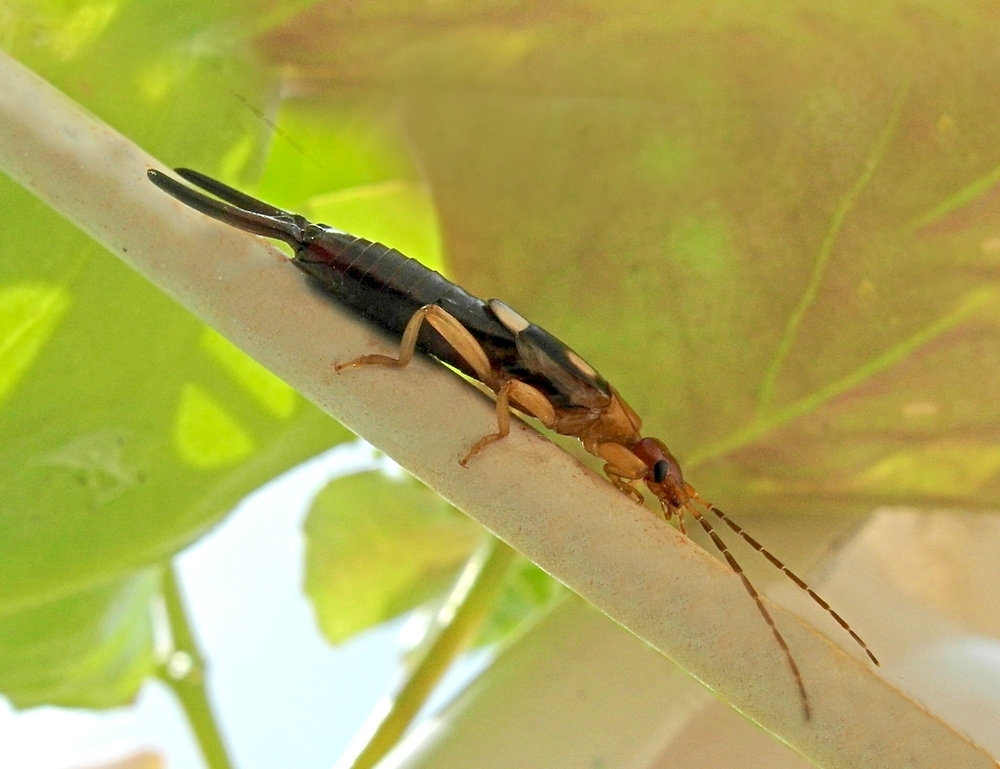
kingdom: Animalia
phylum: Arthropoda
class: Insecta
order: Dermaptera
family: Forficulidae
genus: Forficula
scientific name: Forficula smyrnensis
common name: Smyrna earwig
